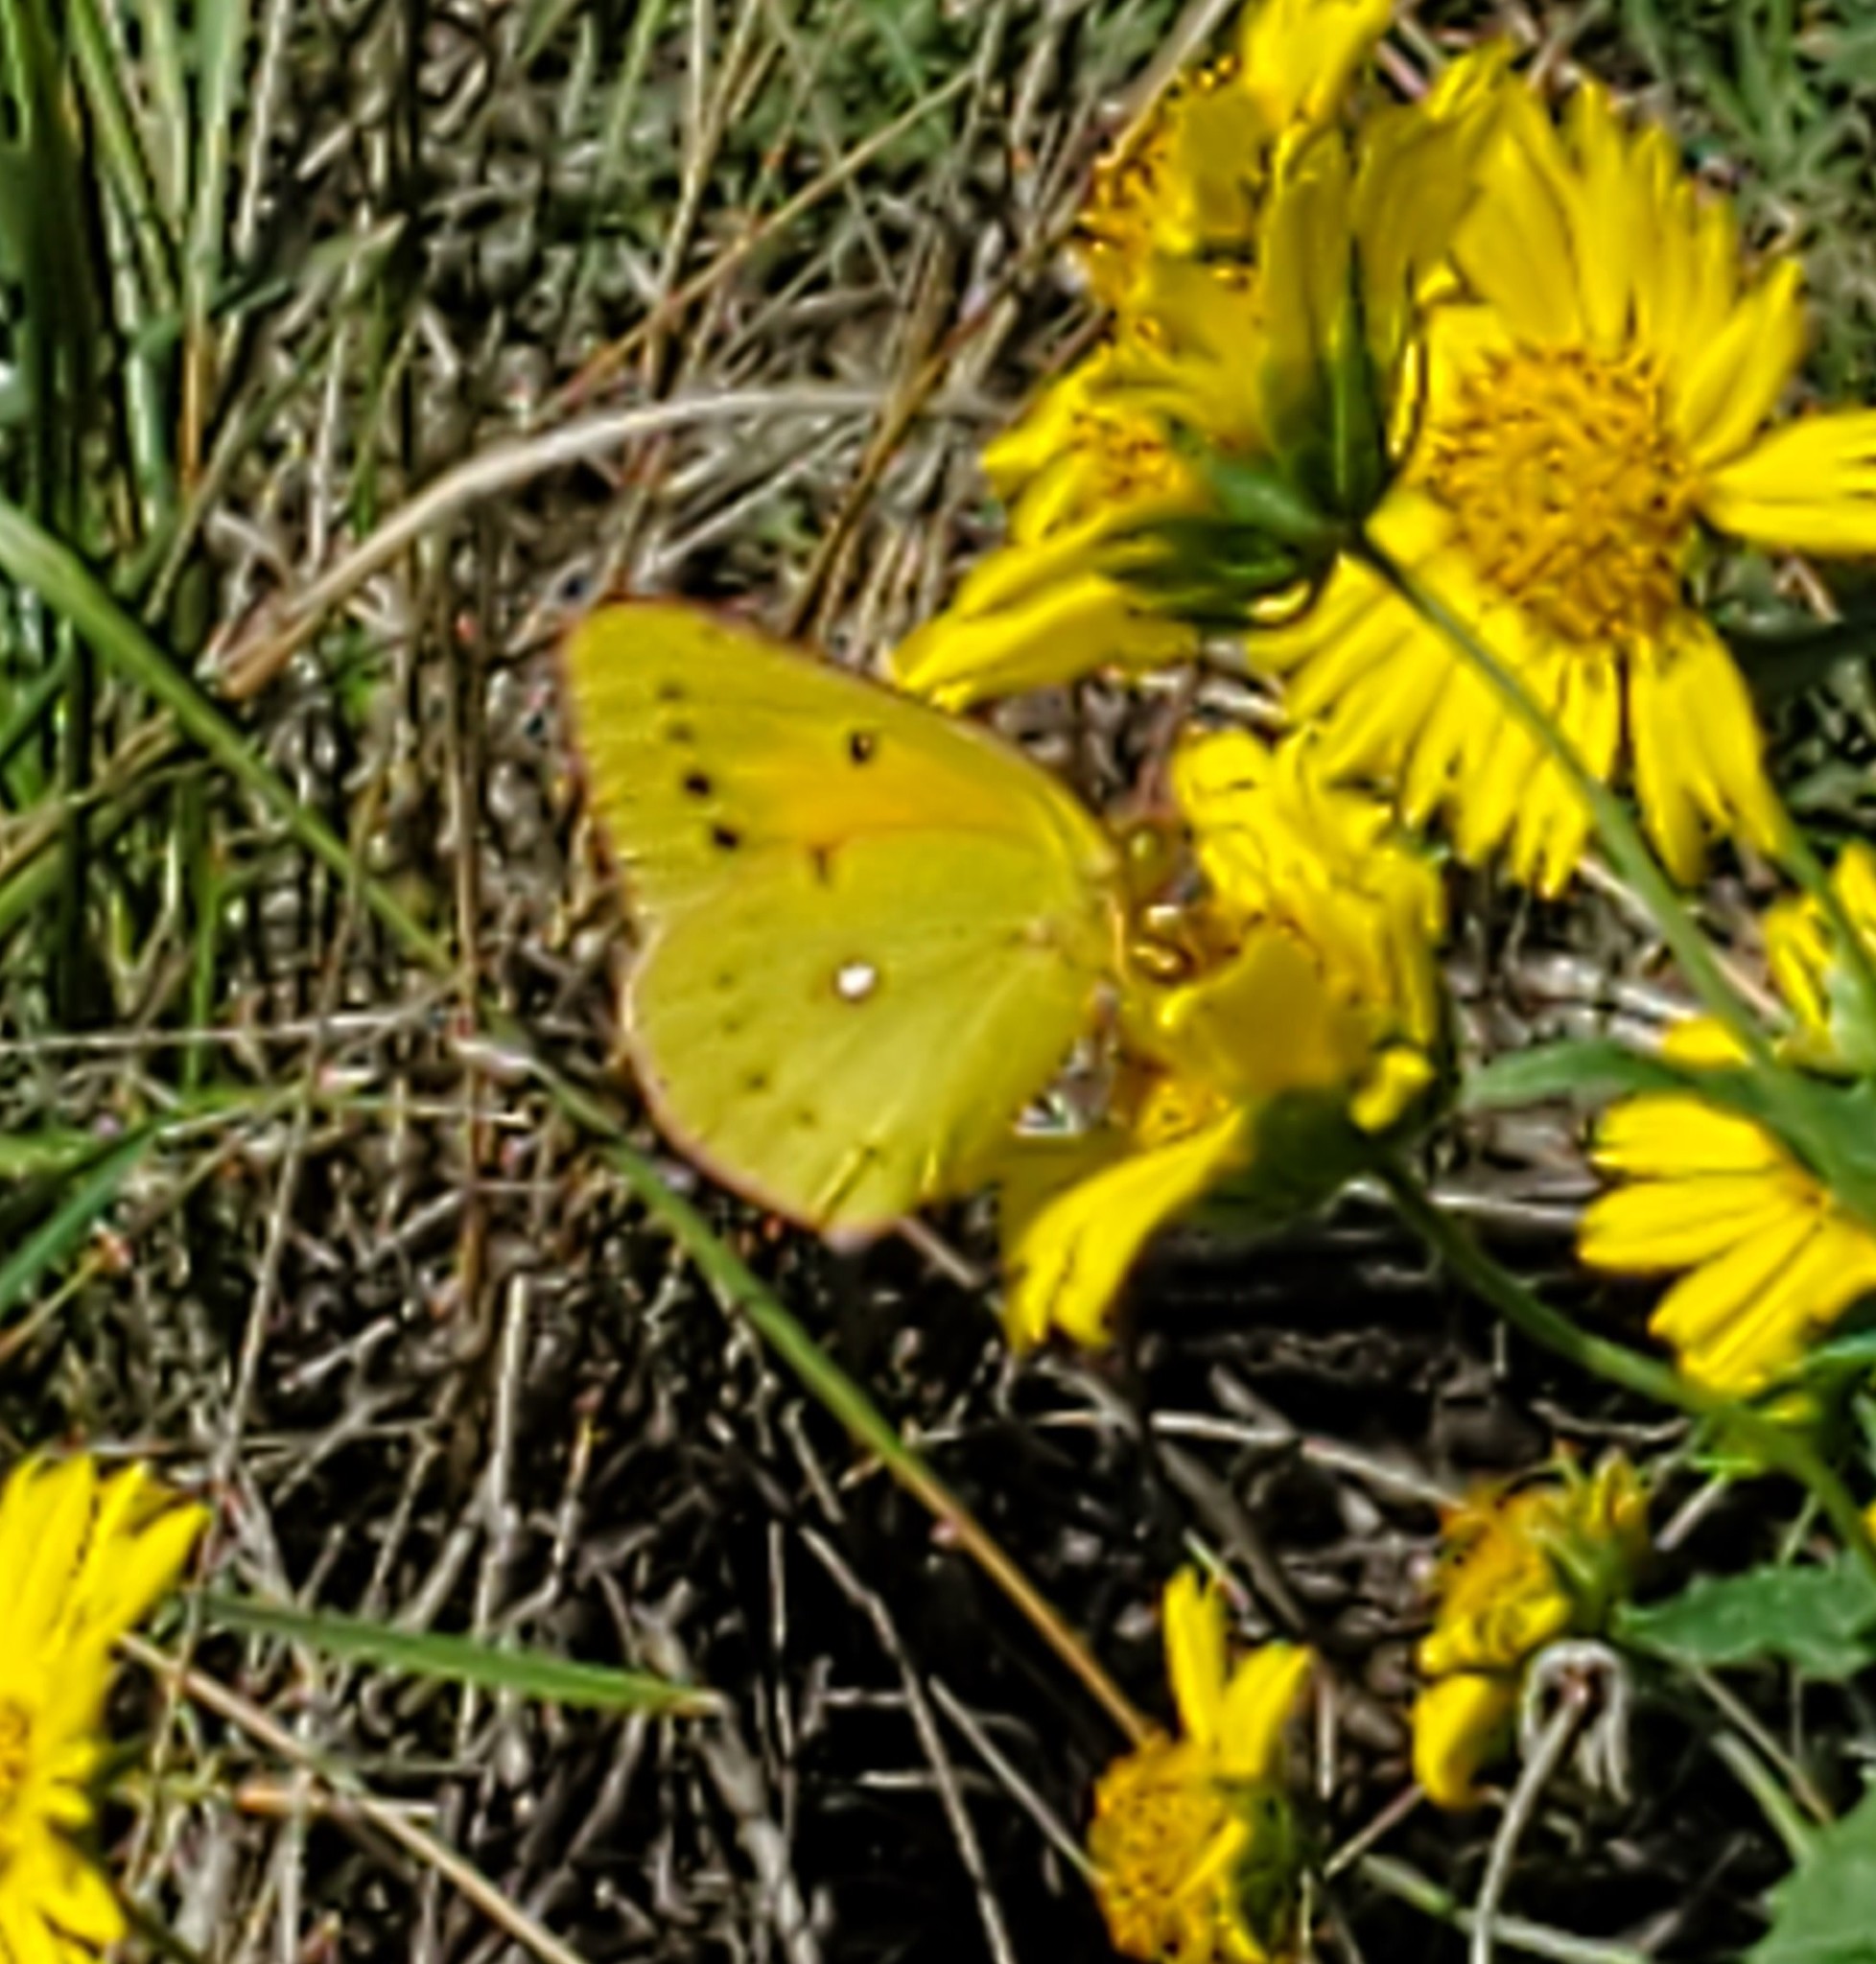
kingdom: Animalia
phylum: Arthropoda
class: Insecta
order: Lepidoptera
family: Pieridae
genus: Colias
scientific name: Colias eurytheme
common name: Alfalfa butterfly
